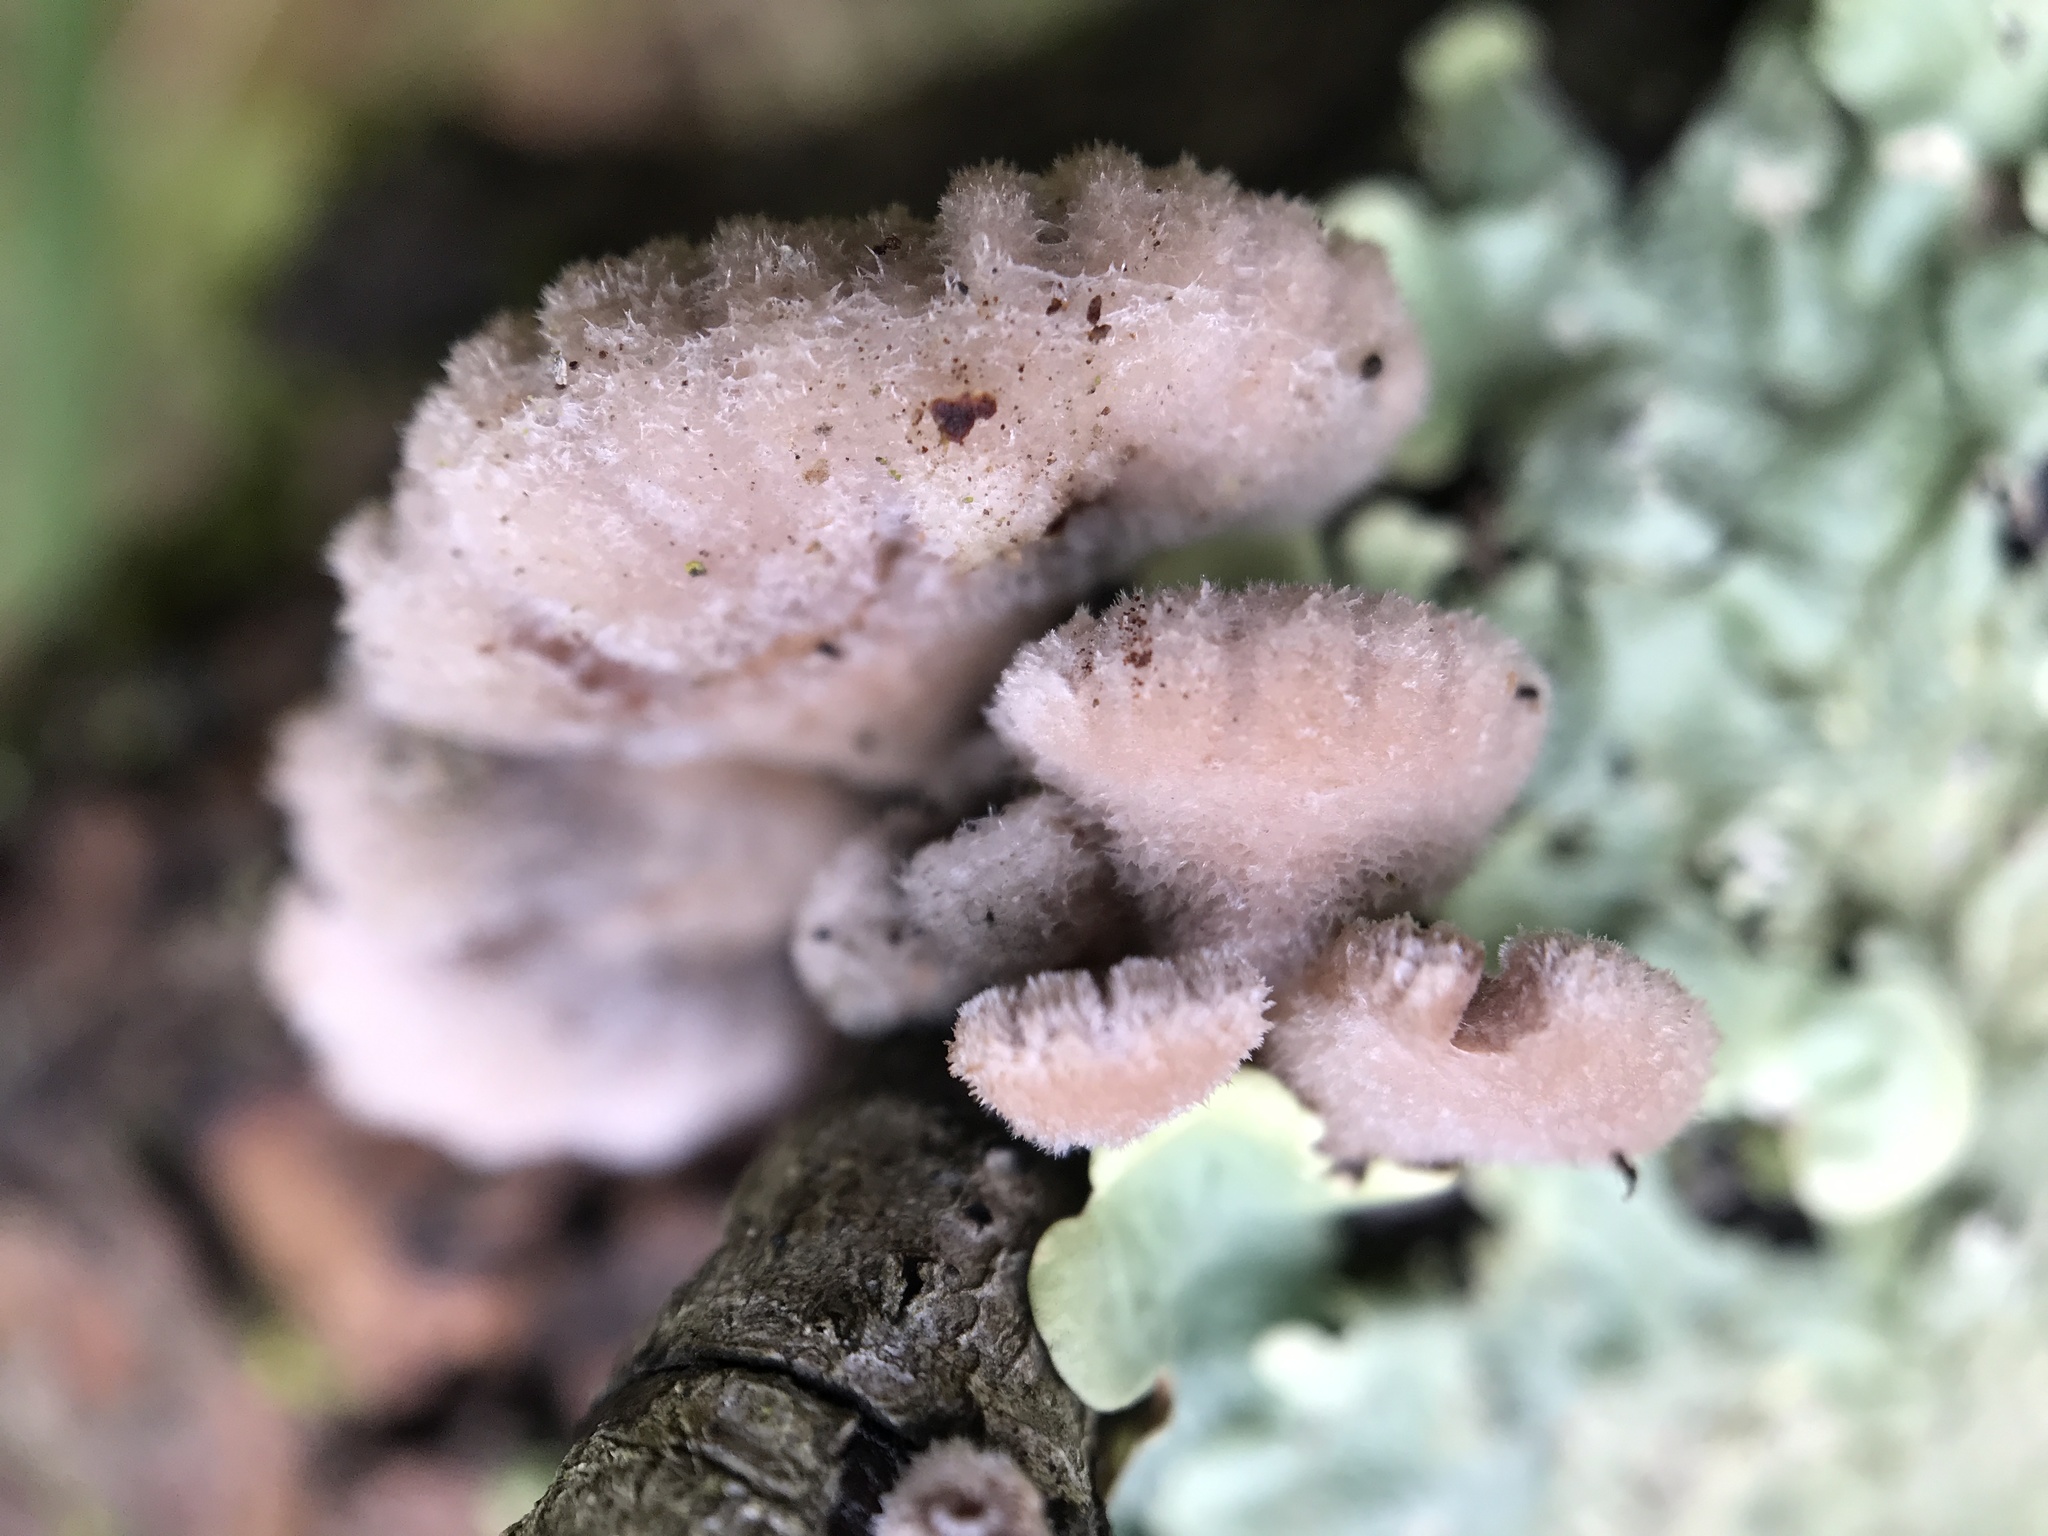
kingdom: Fungi
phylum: Basidiomycota
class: Agaricomycetes
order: Agaricales
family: Schizophyllaceae
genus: Schizophyllum
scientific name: Schizophyllum commune
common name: Common porecrust
